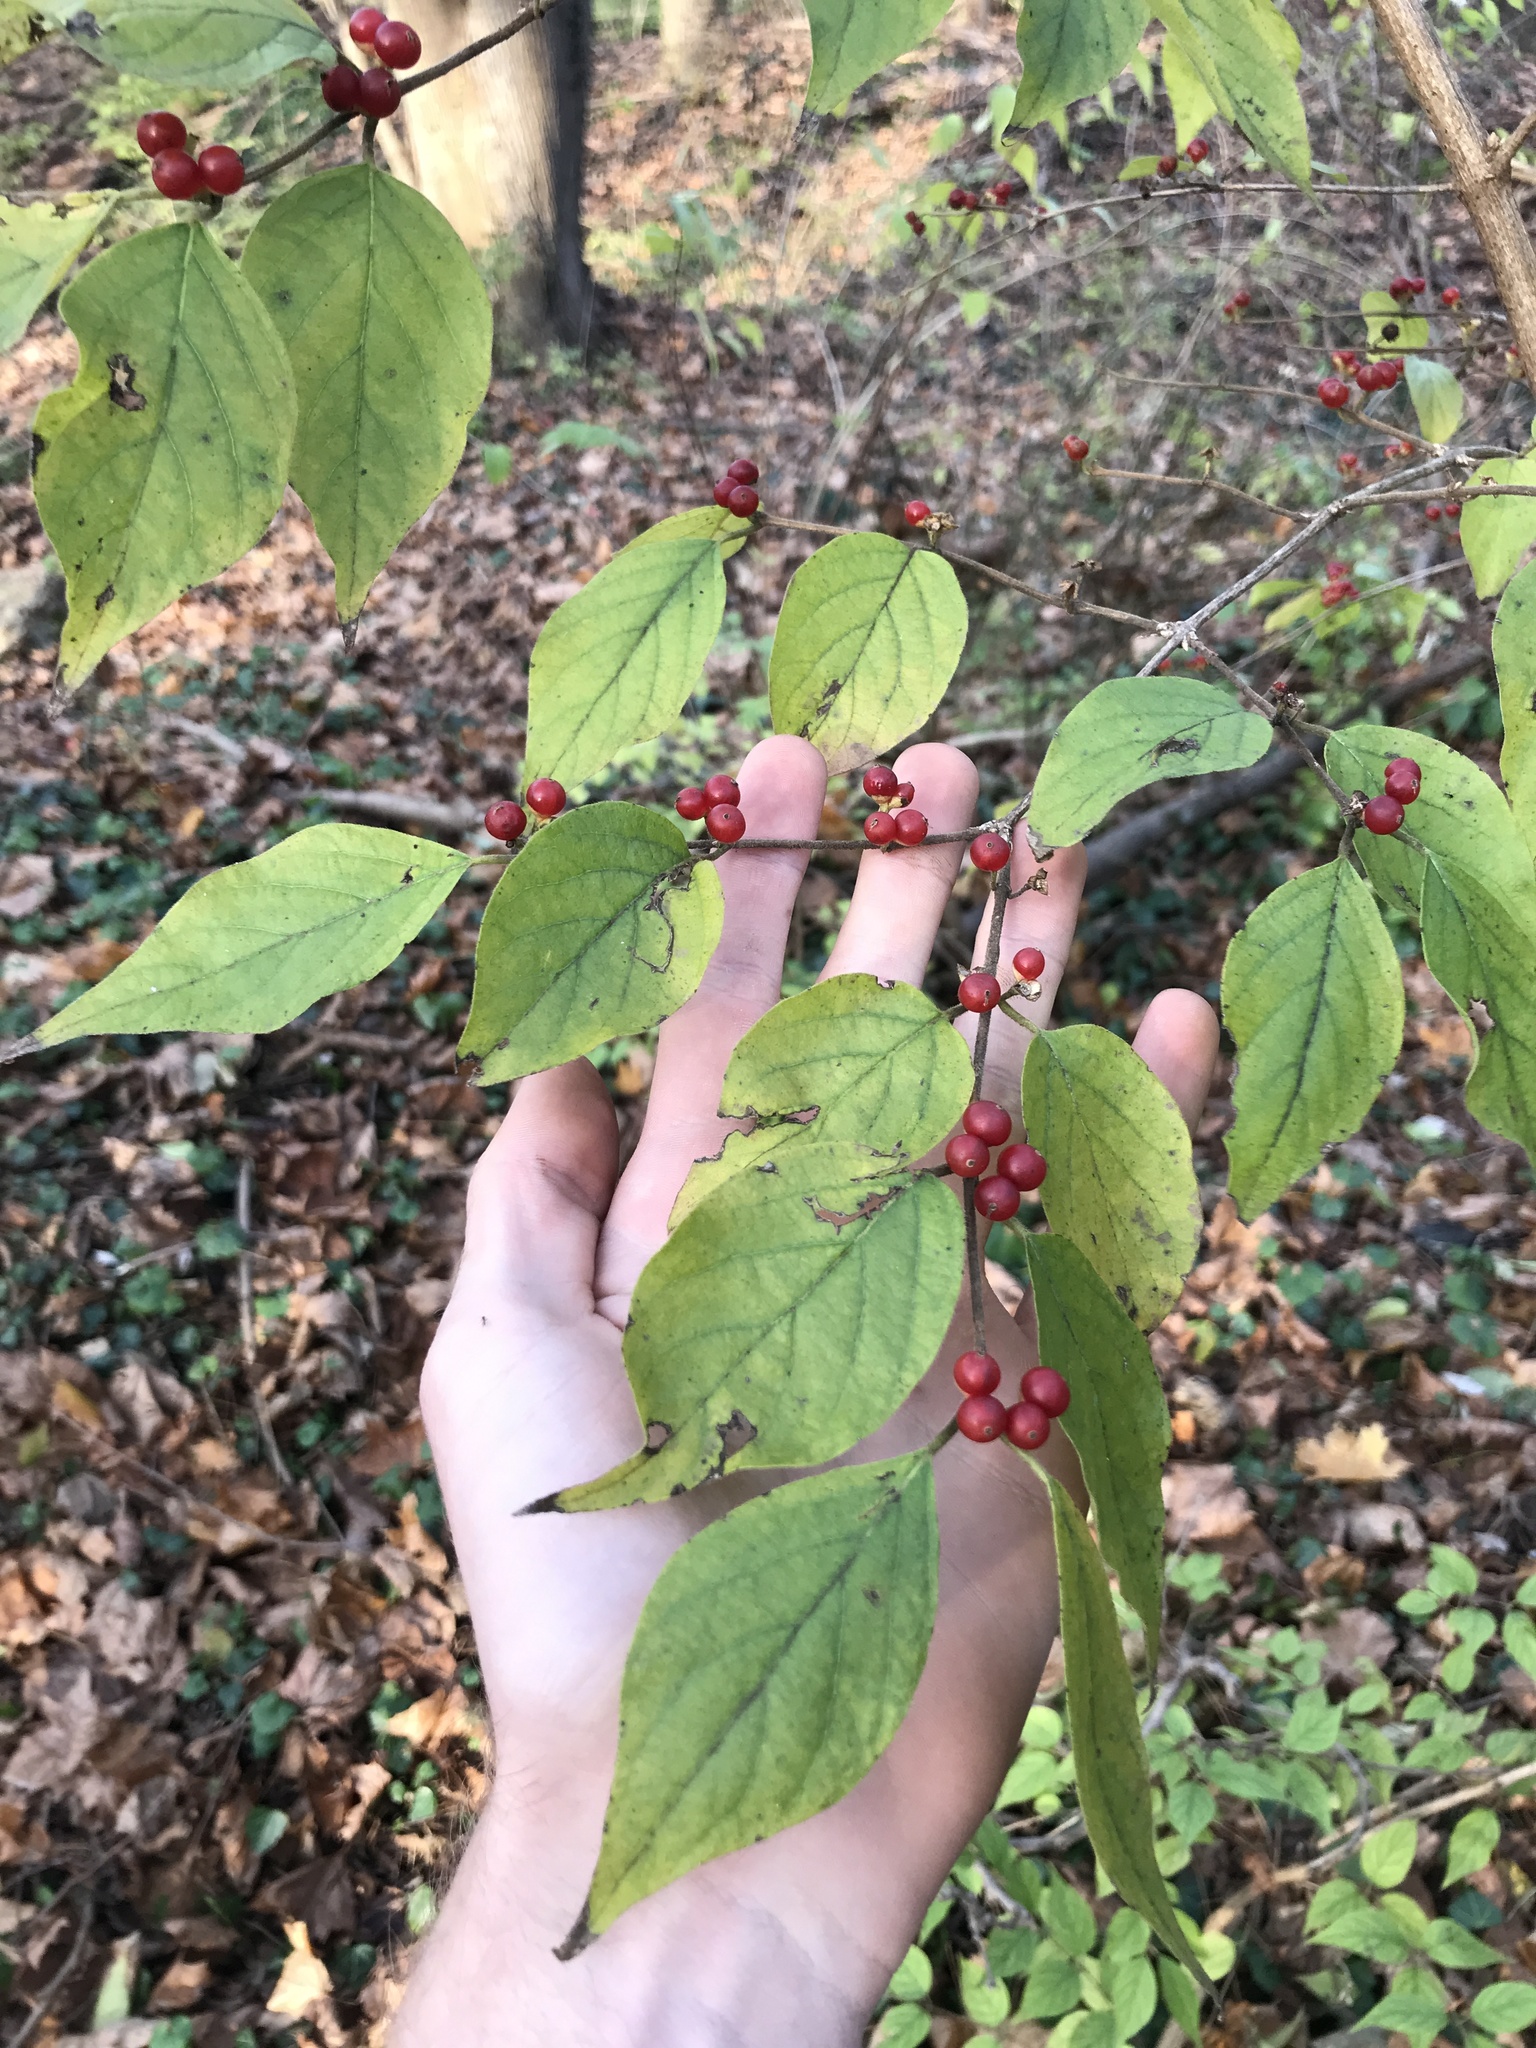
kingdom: Plantae
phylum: Tracheophyta
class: Magnoliopsida
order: Dipsacales
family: Caprifoliaceae
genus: Lonicera
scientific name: Lonicera maackii
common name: Amur honeysuckle
